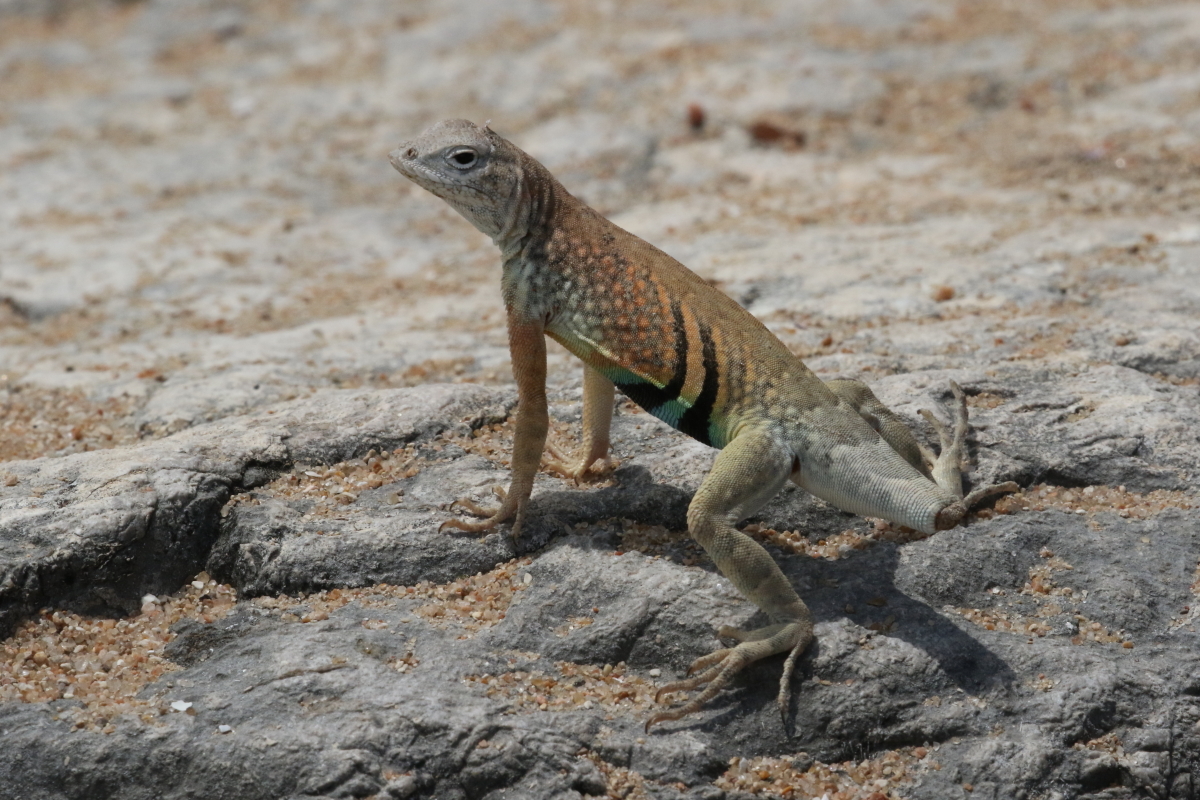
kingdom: Animalia
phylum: Chordata
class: Squamata
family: Phrynosomatidae
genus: Cophosaurus
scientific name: Cophosaurus texanus
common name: Greater earless lizard
